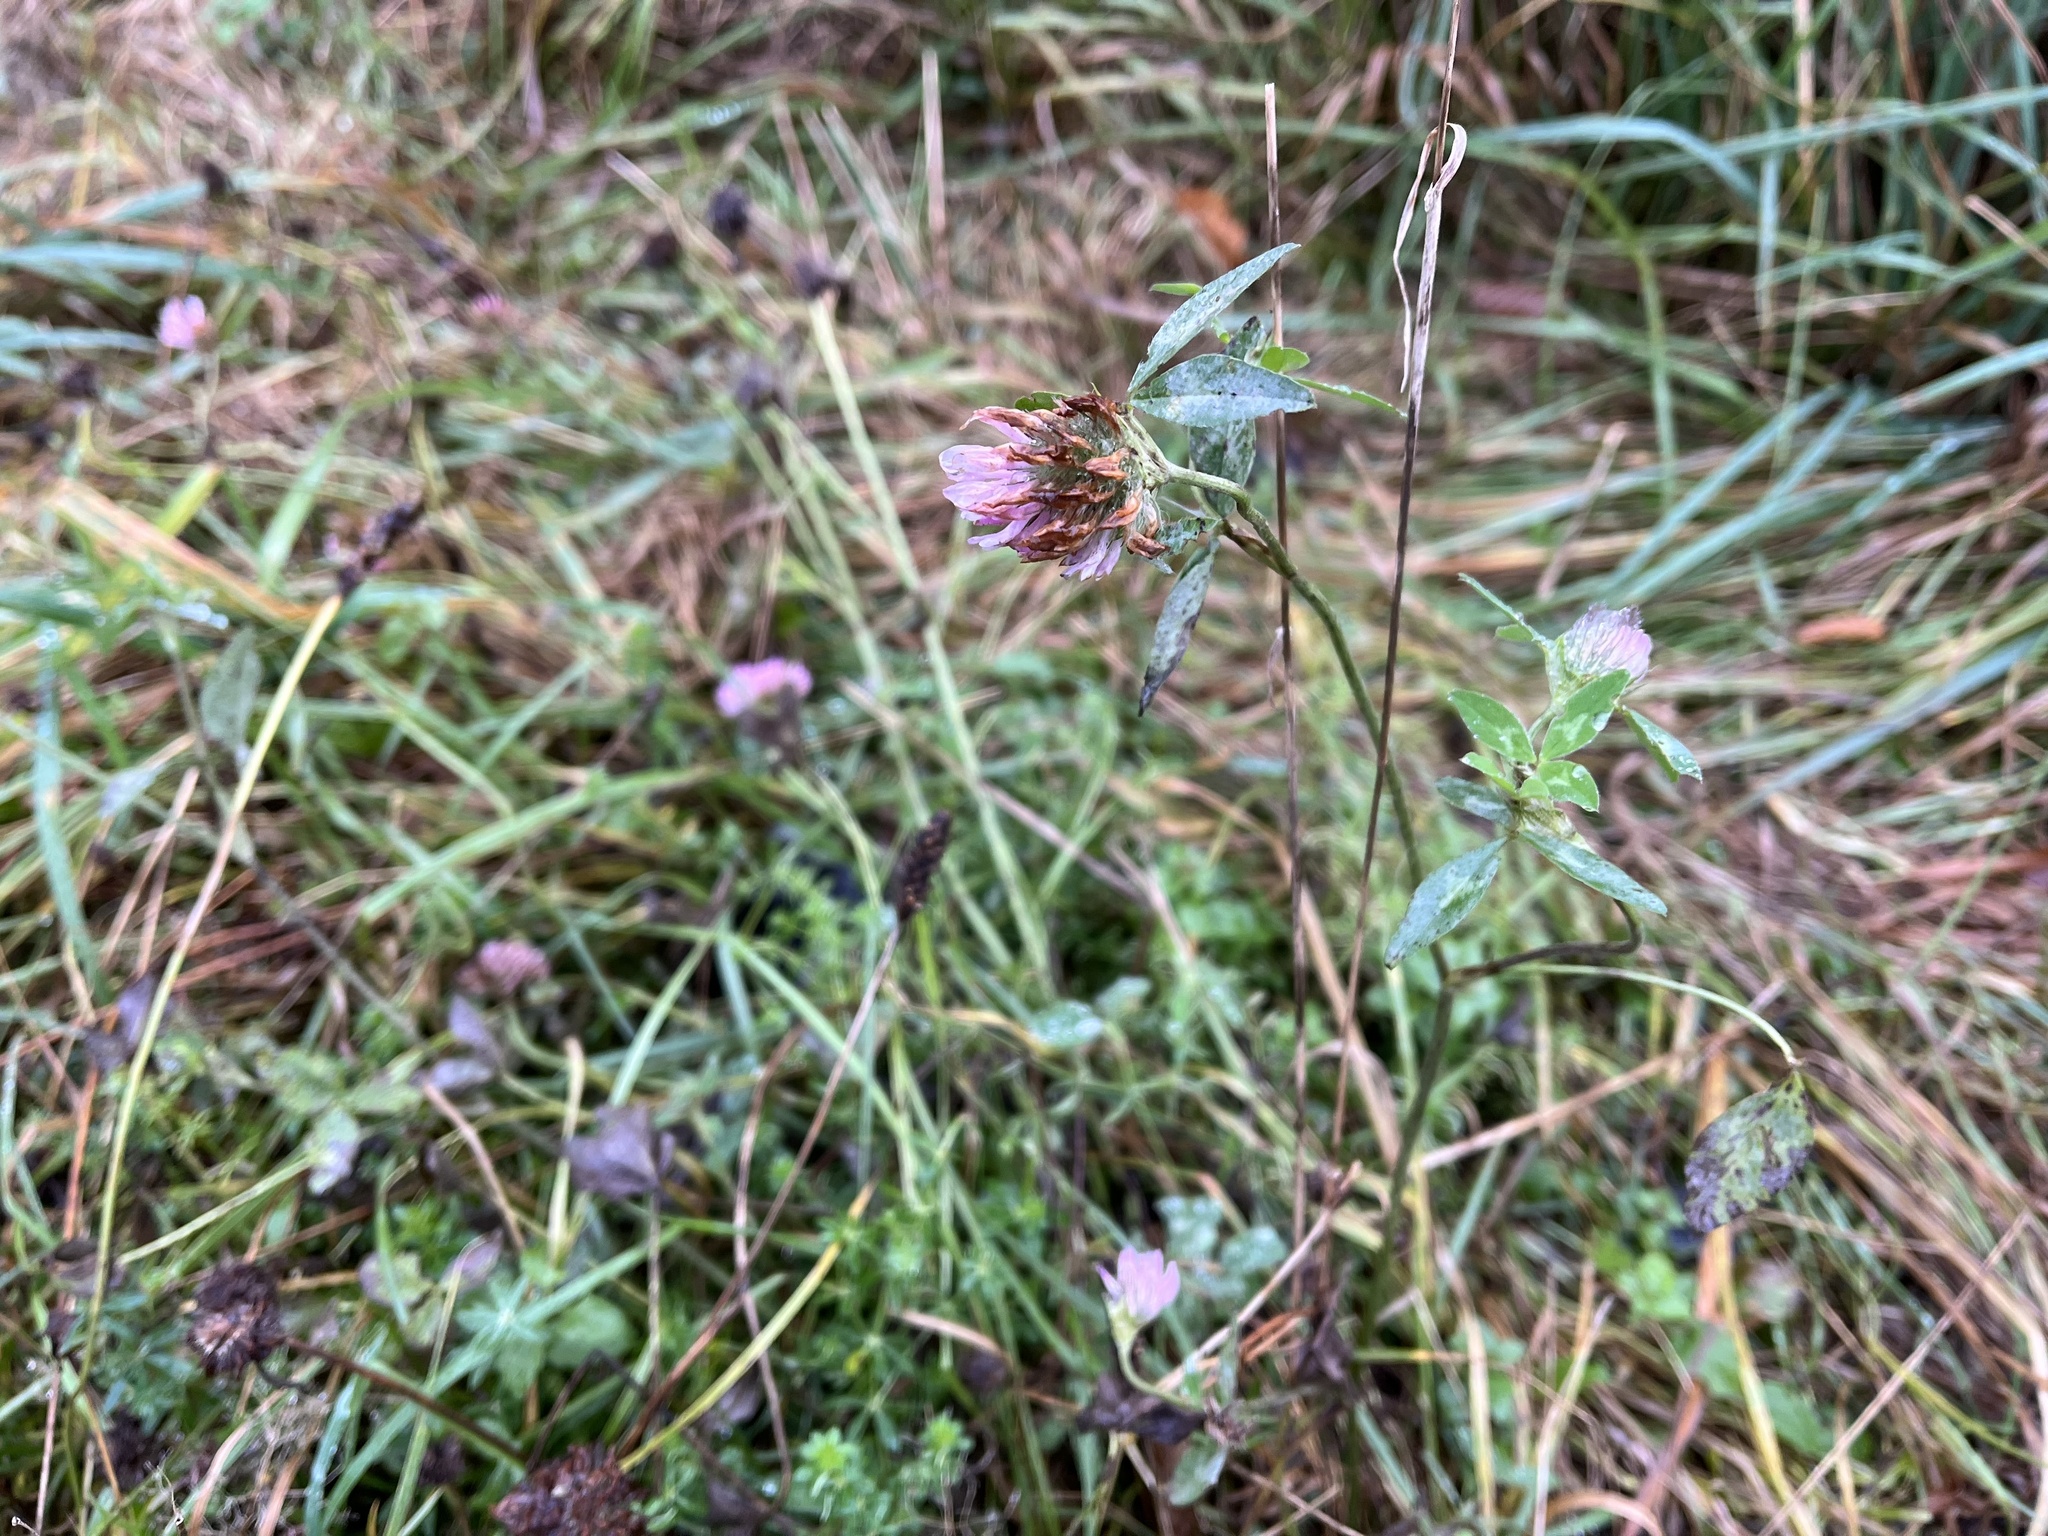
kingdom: Plantae
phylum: Tracheophyta
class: Magnoliopsida
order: Fabales
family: Fabaceae
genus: Trifolium
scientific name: Trifolium pratense
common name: Red clover
